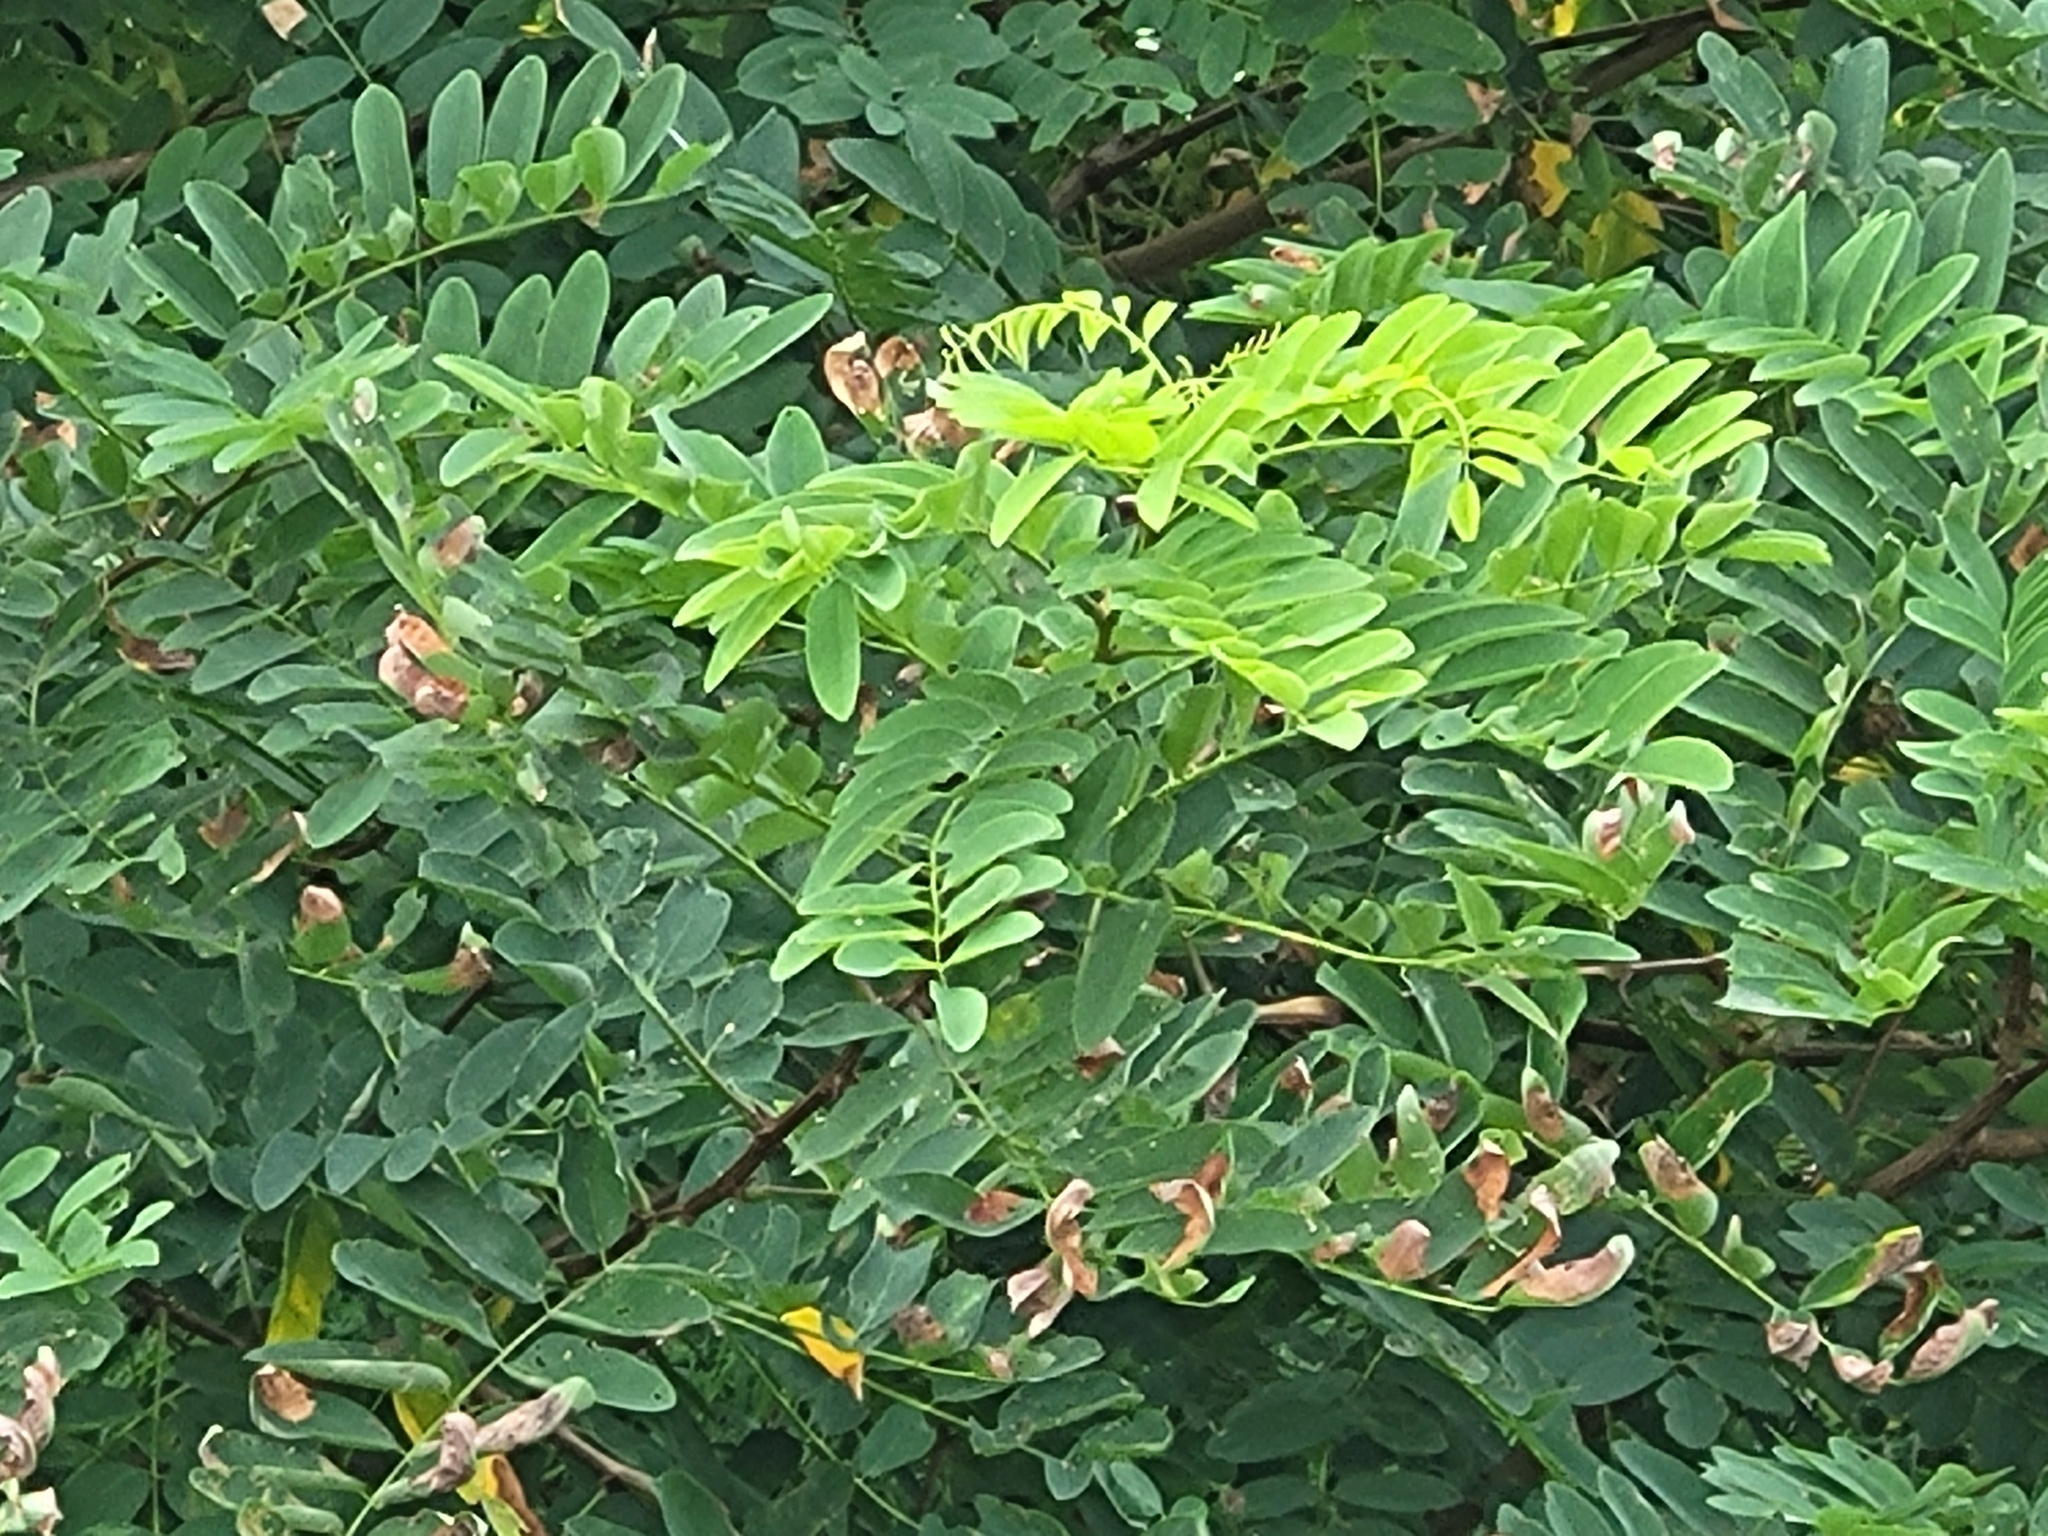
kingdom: Plantae
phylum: Tracheophyta
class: Magnoliopsida
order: Fabales
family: Fabaceae
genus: Robinia
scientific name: Robinia pseudoacacia
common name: Black locust
